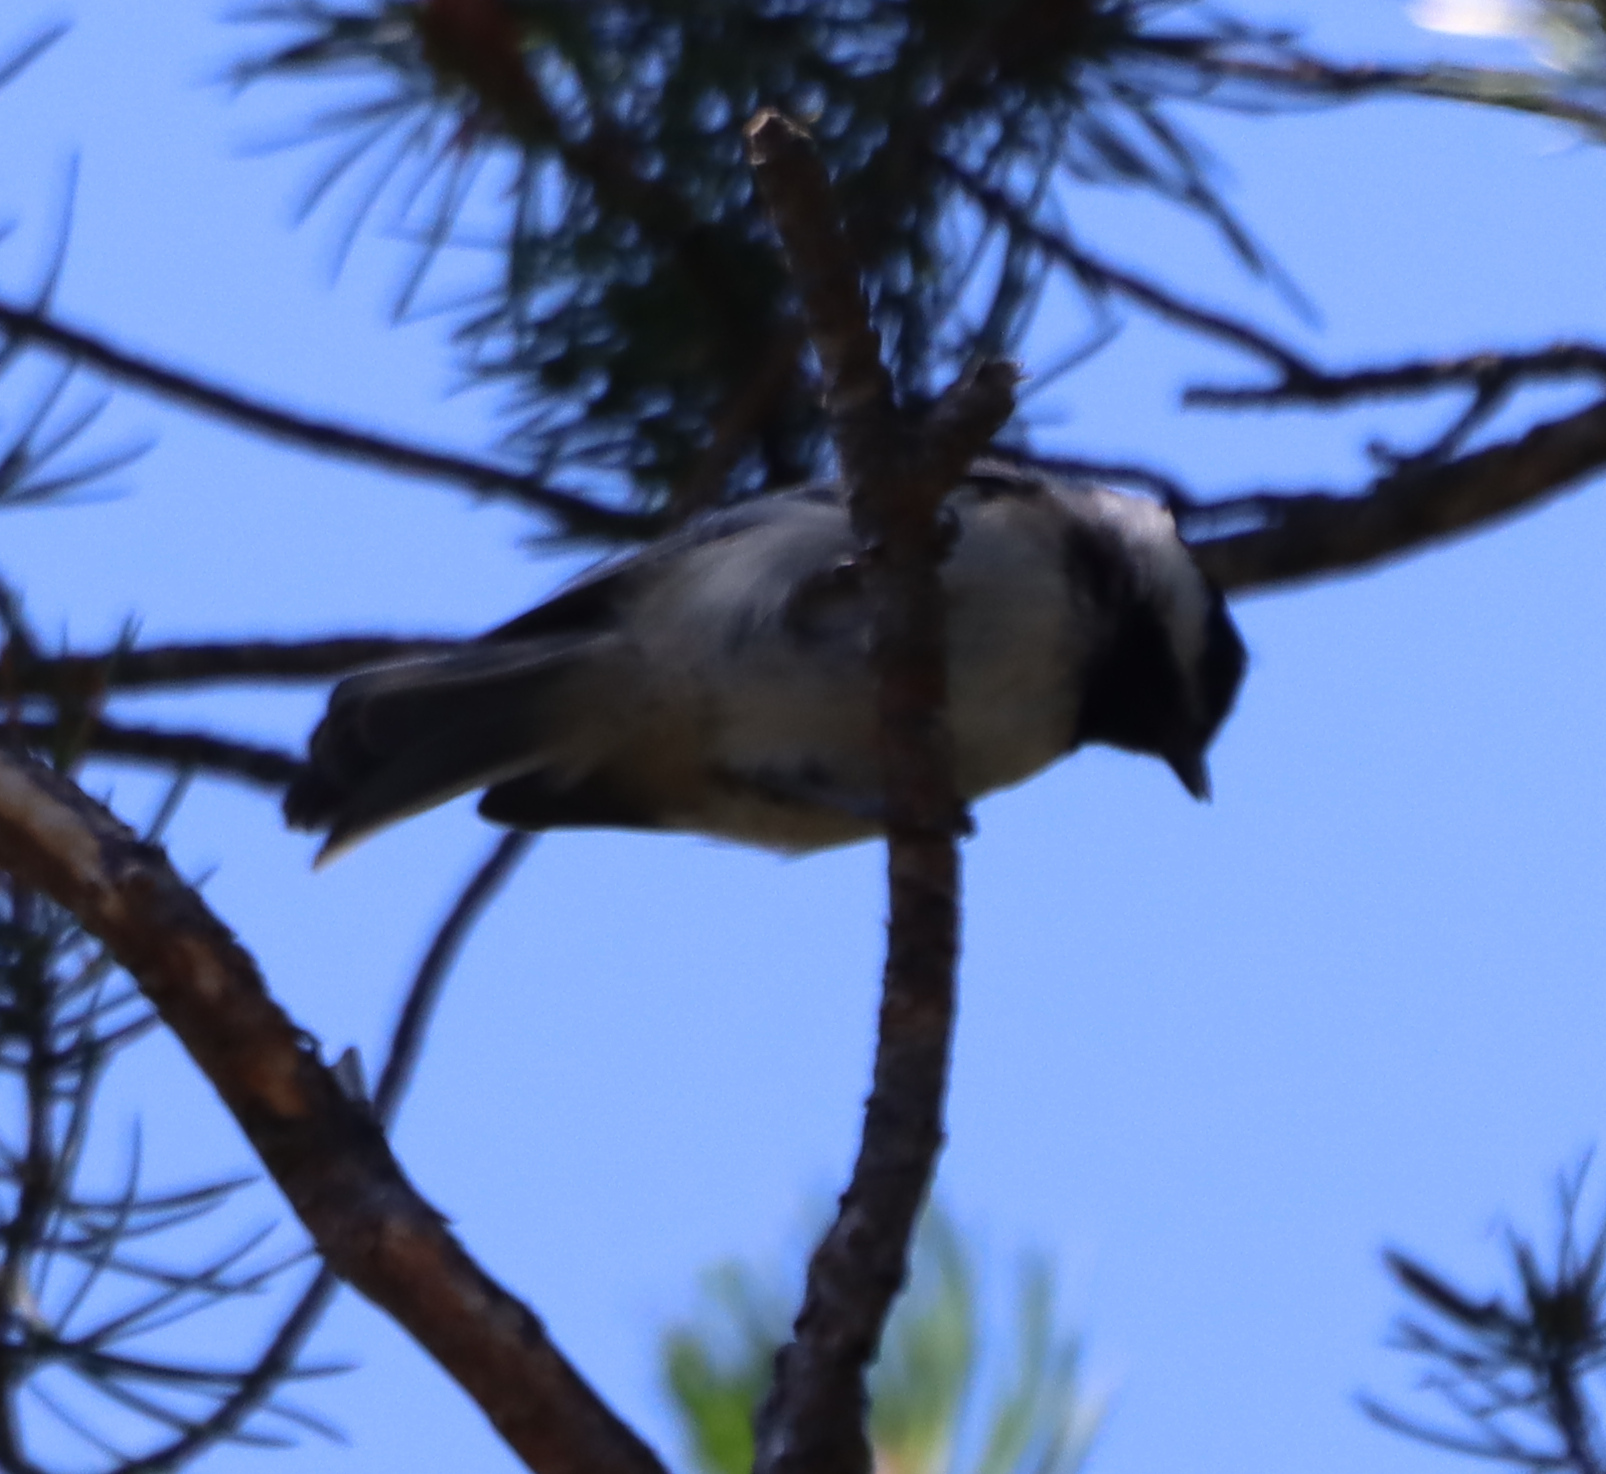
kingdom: Animalia
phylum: Chordata
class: Aves
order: Passeriformes
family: Paridae
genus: Poecile
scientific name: Poecile atricapillus
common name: Black-capped chickadee
